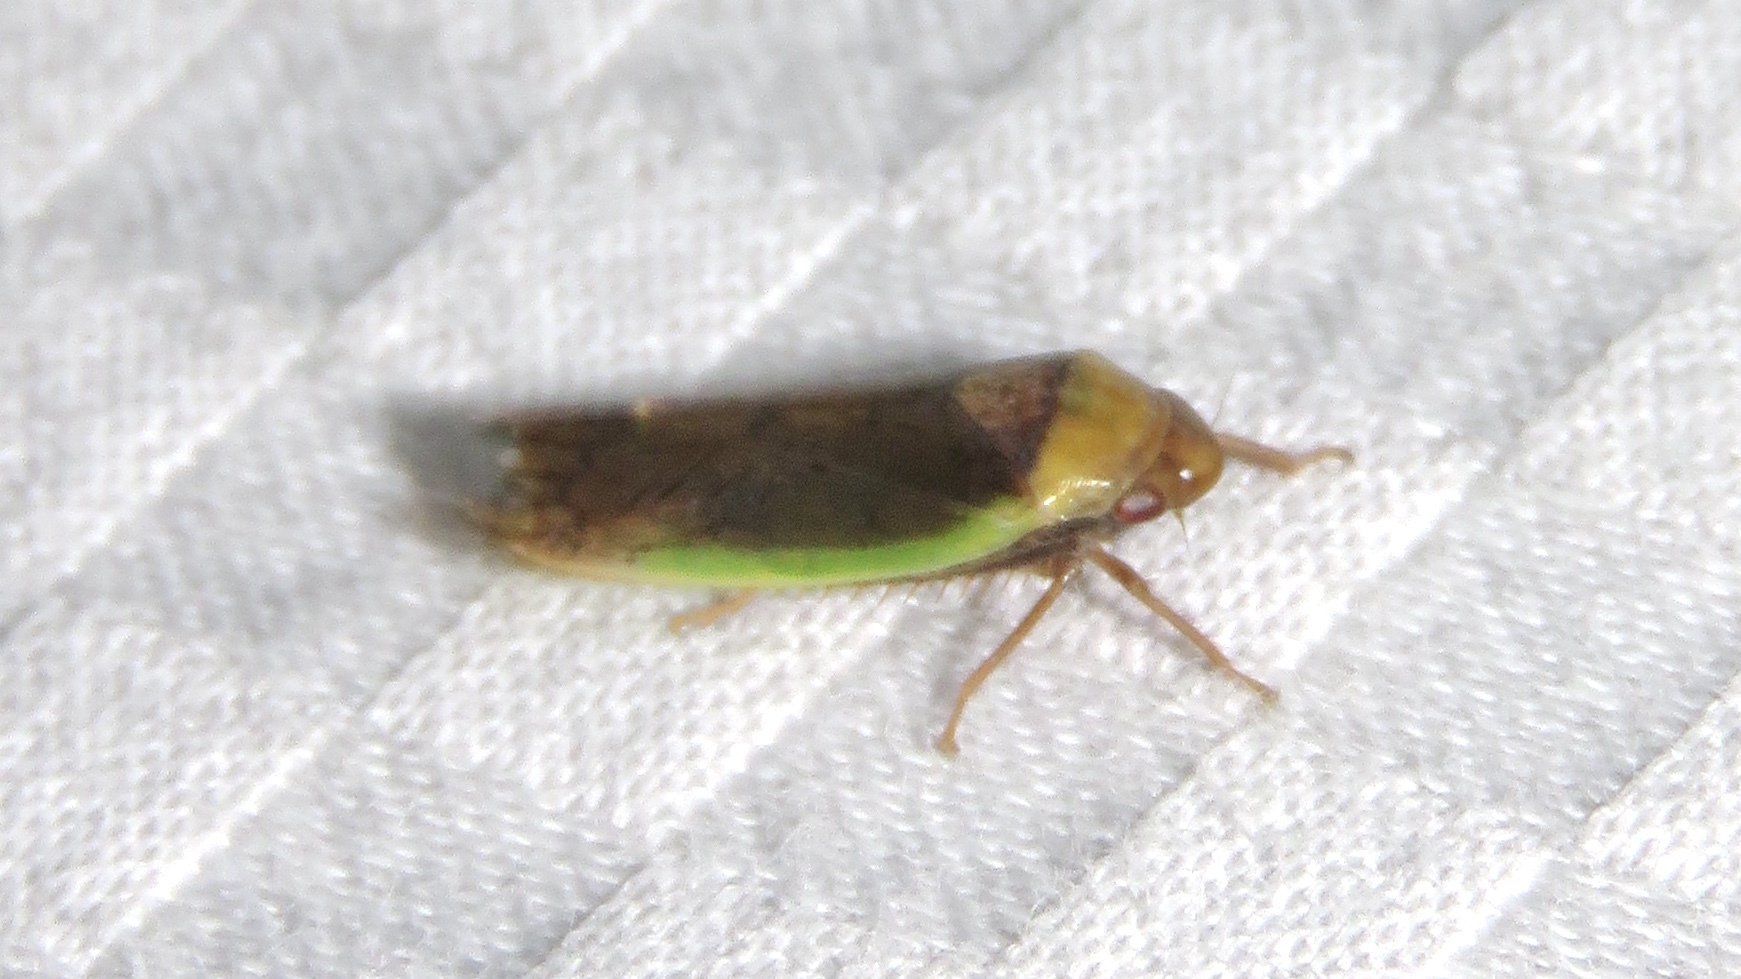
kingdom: Animalia
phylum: Arthropoda
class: Insecta
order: Hemiptera
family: Cicadellidae
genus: Ponana
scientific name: Ponana limbatipennis
